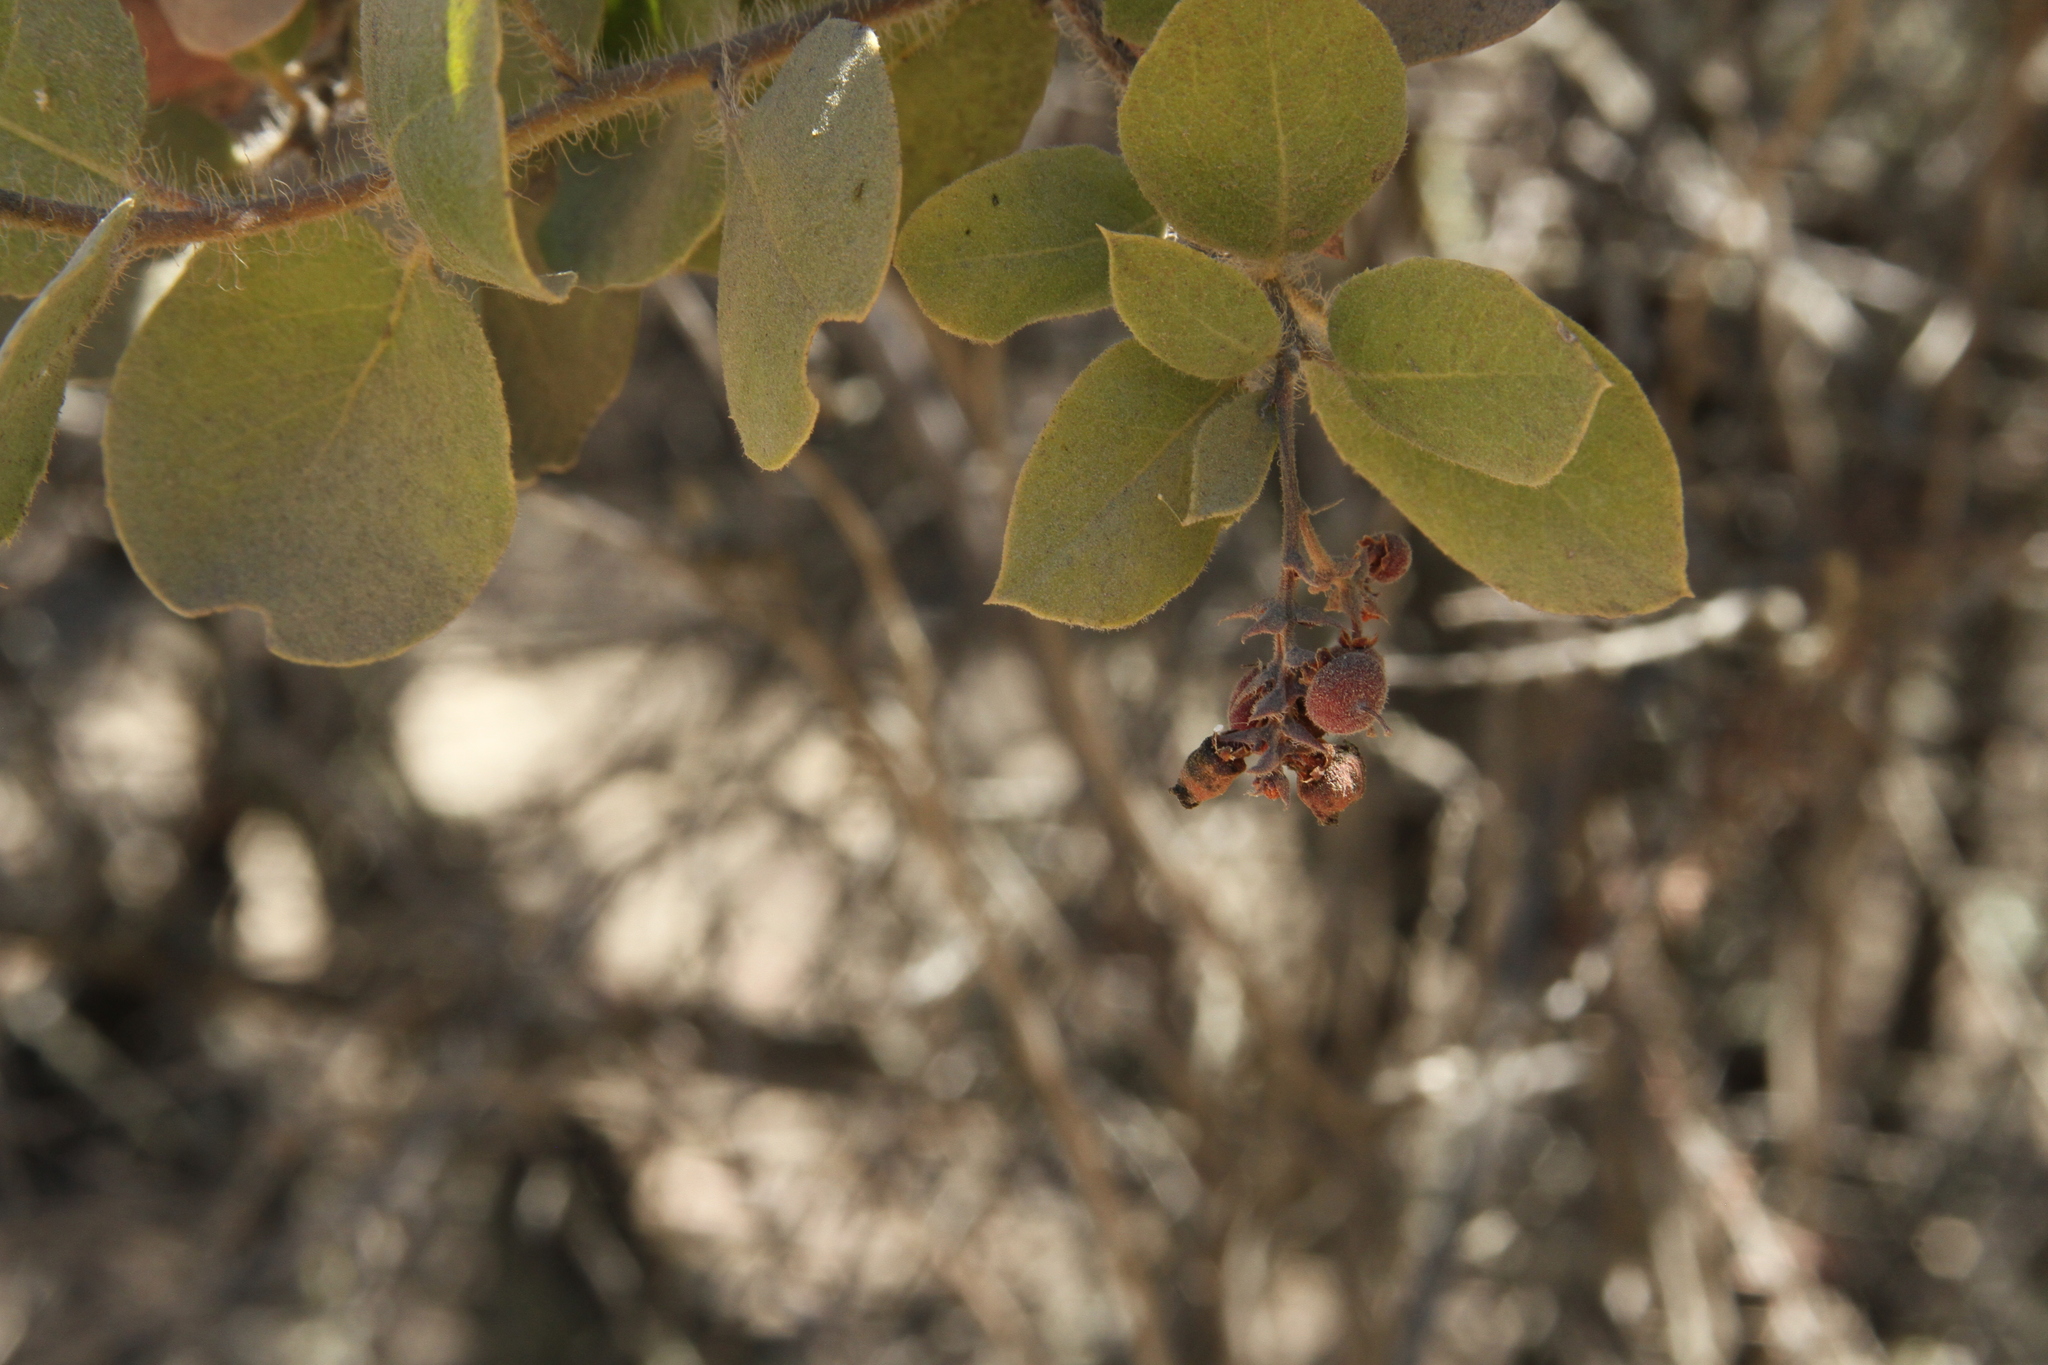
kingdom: Plantae
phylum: Tracheophyta
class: Magnoliopsida
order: Ericales
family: Ericaceae
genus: Arctostaphylos
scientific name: Arctostaphylos crustacea
